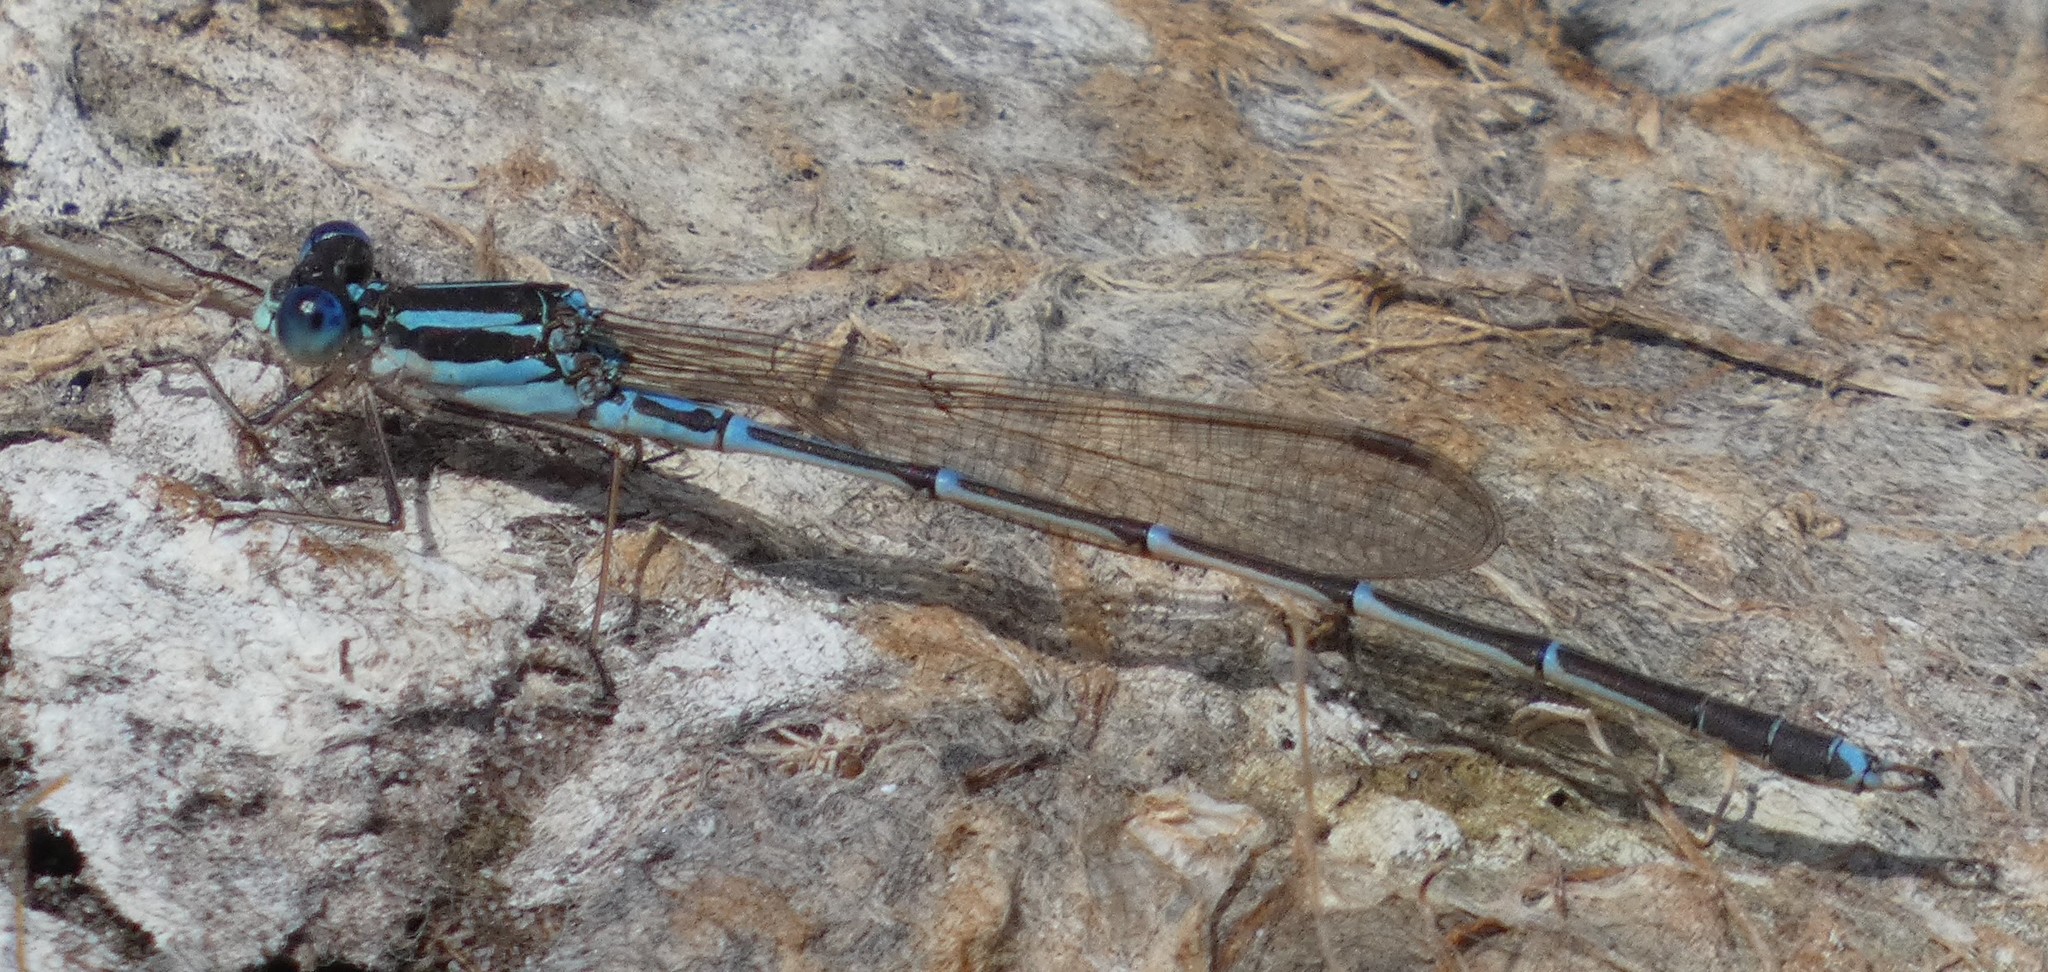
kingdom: Animalia
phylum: Arthropoda
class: Insecta
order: Odonata
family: Lestidae
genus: Austrolestes
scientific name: Austrolestes analis
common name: Slender ringtail
